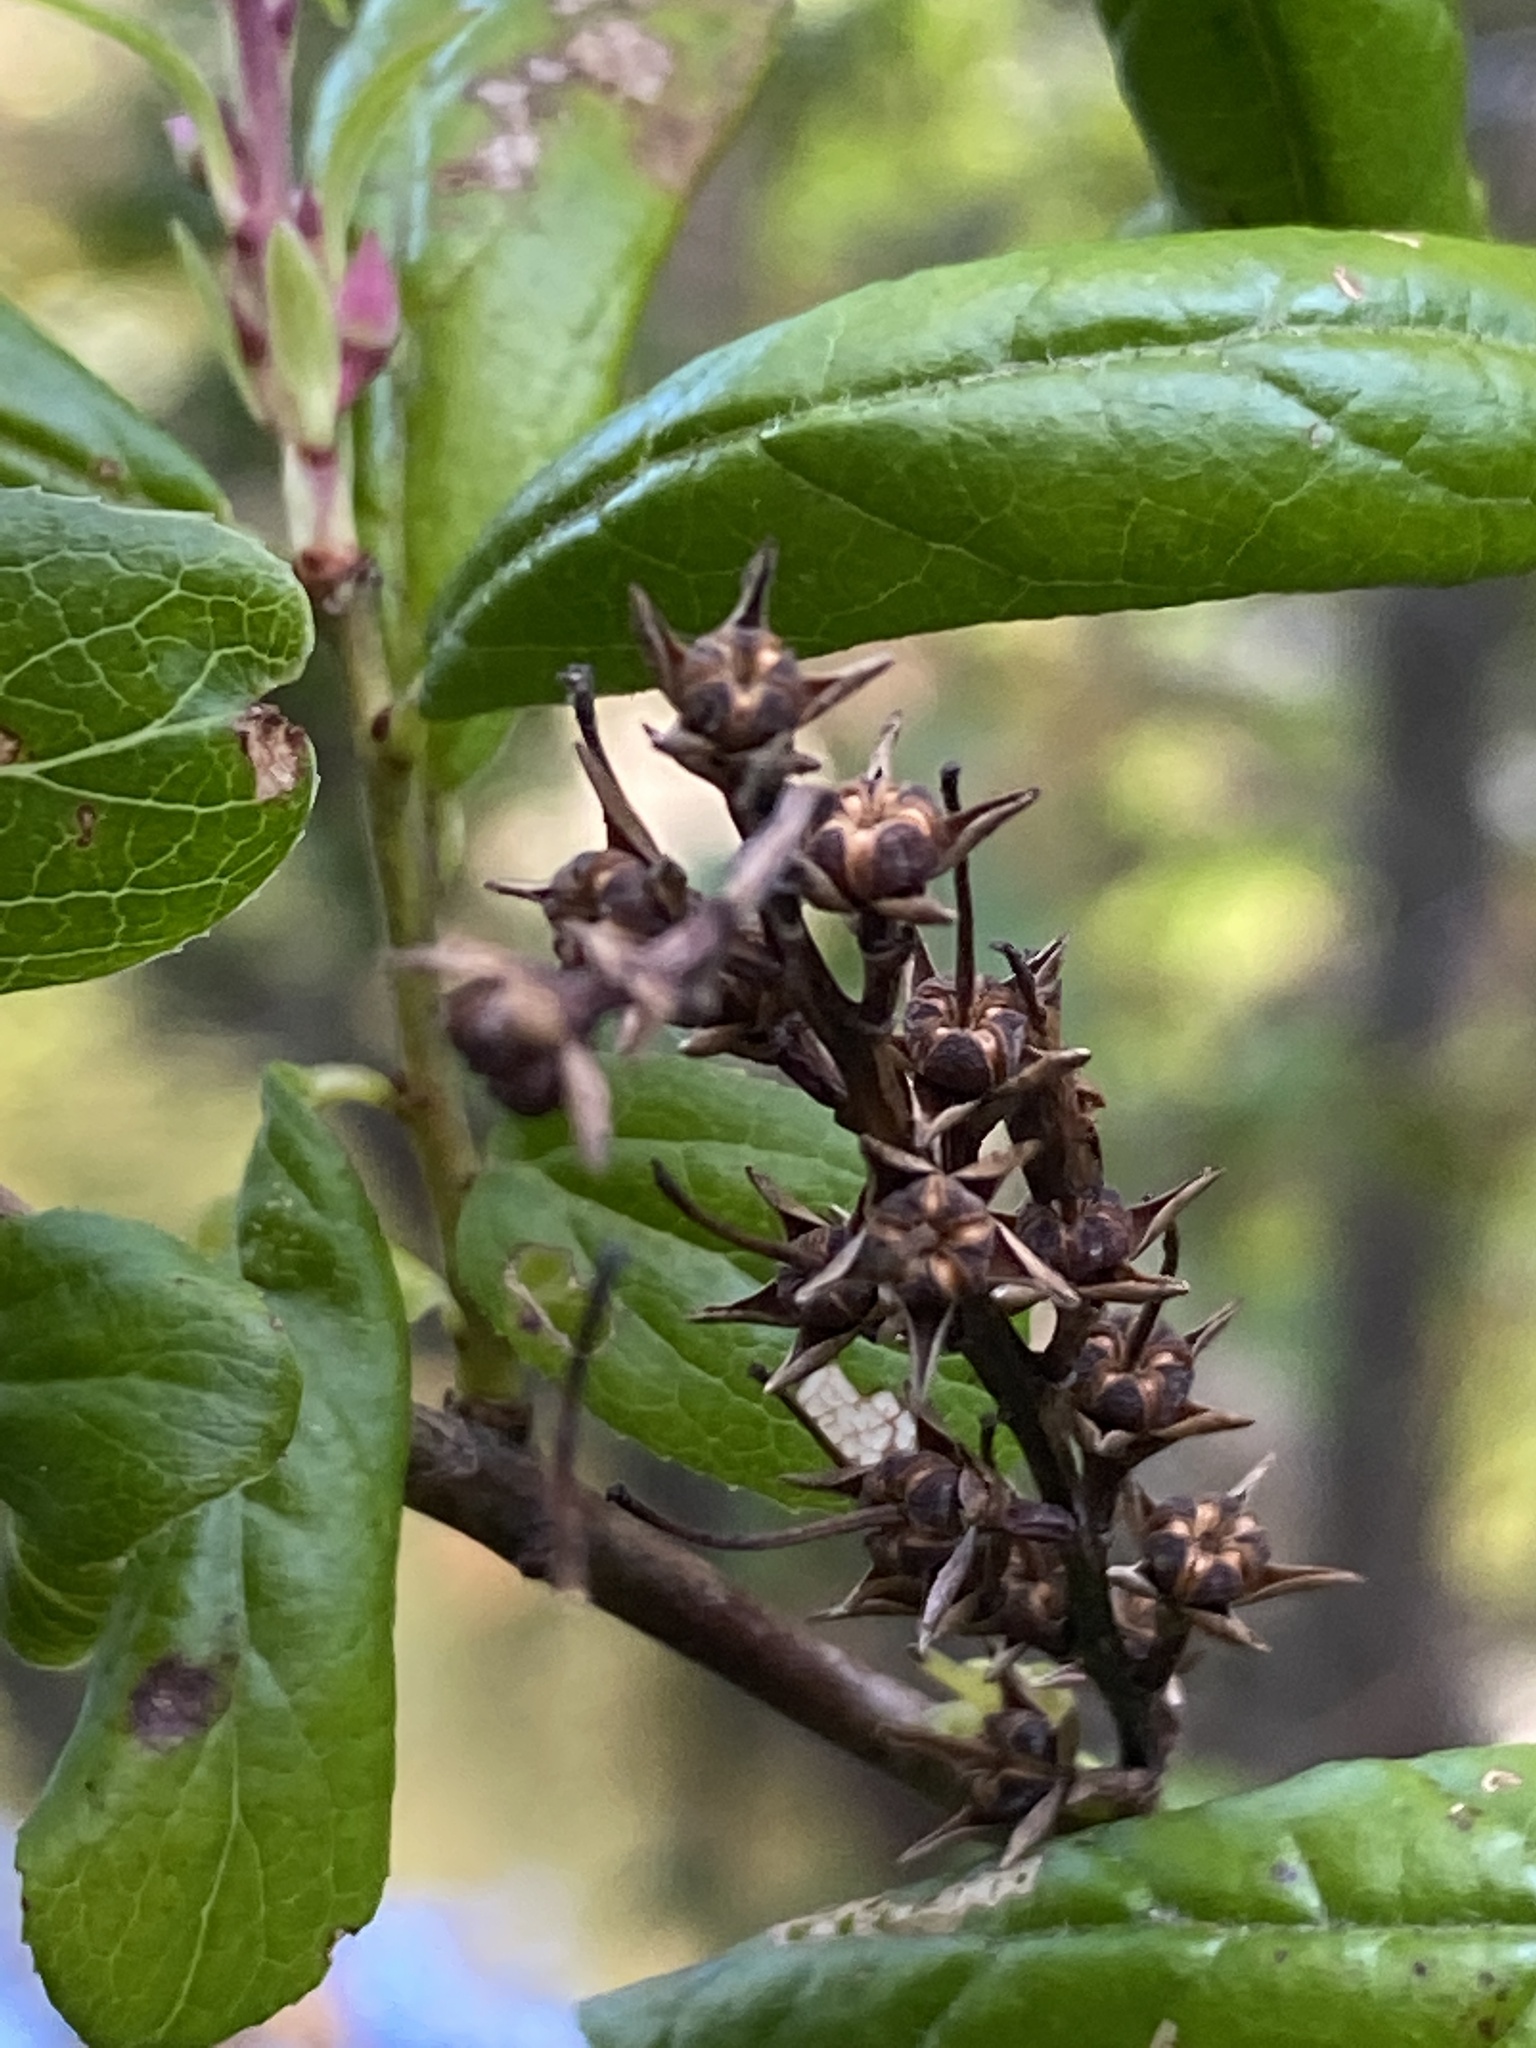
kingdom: Plantae
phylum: Tracheophyta
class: Magnoliopsida
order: Ericales
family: Ericaceae
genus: Eubotrys
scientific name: Eubotrys racemosa
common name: Fetterbush
